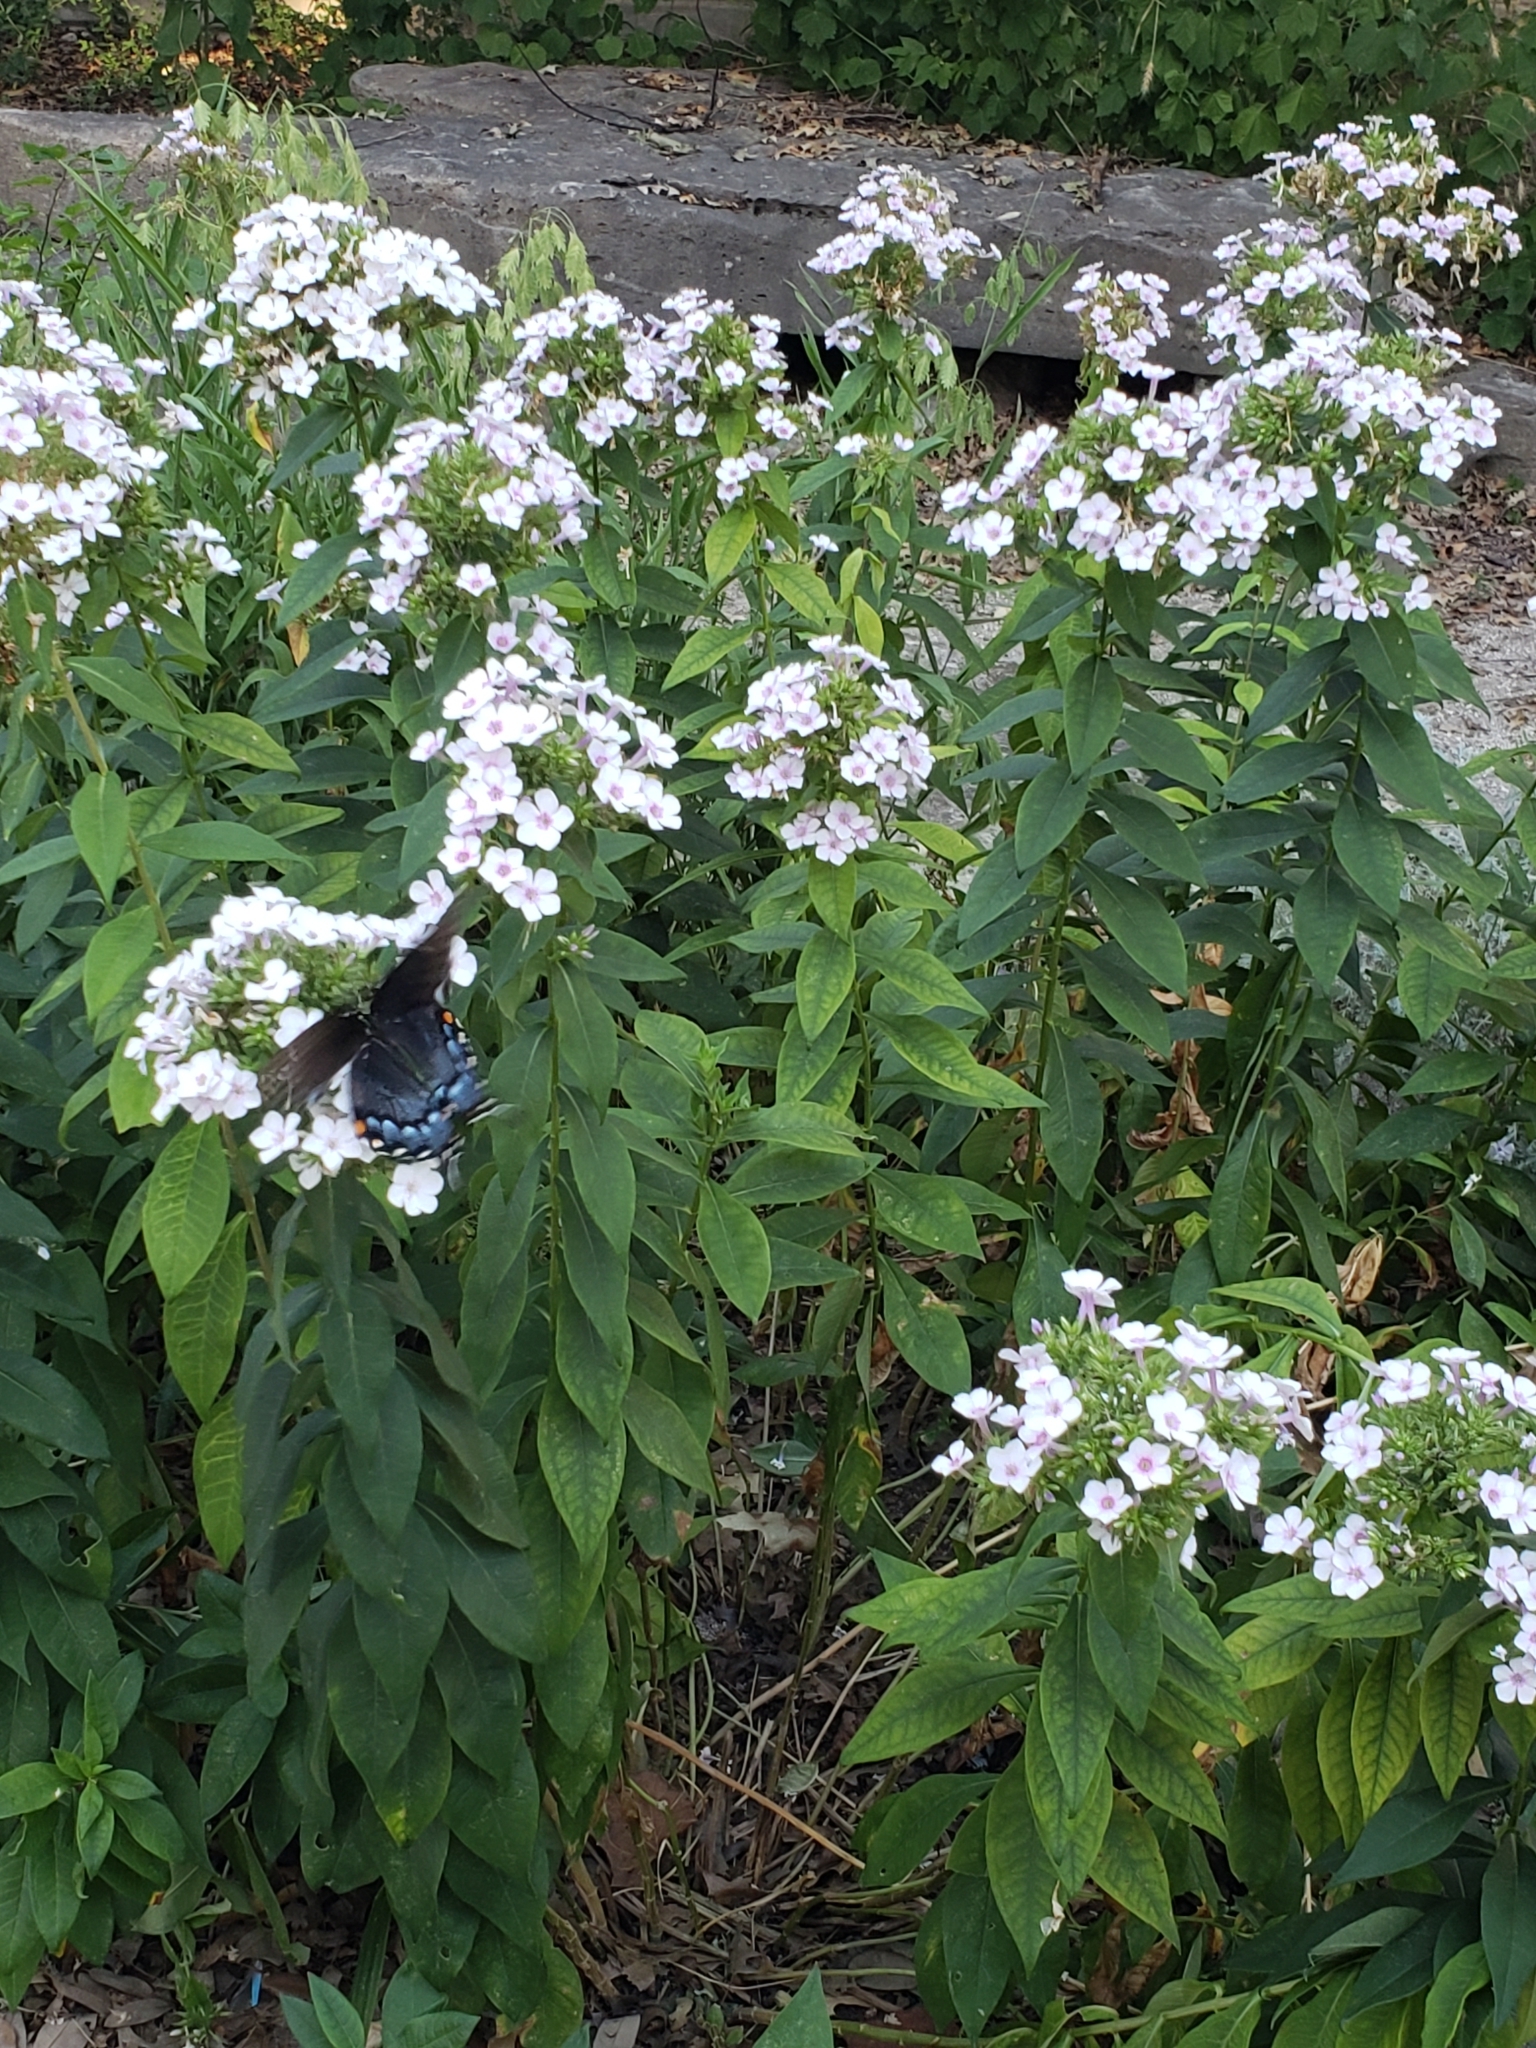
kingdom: Animalia
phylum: Arthropoda
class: Insecta
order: Lepidoptera
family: Nymphalidae
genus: Limenitis
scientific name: Limenitis arthemis
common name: Red-spotted admiral
